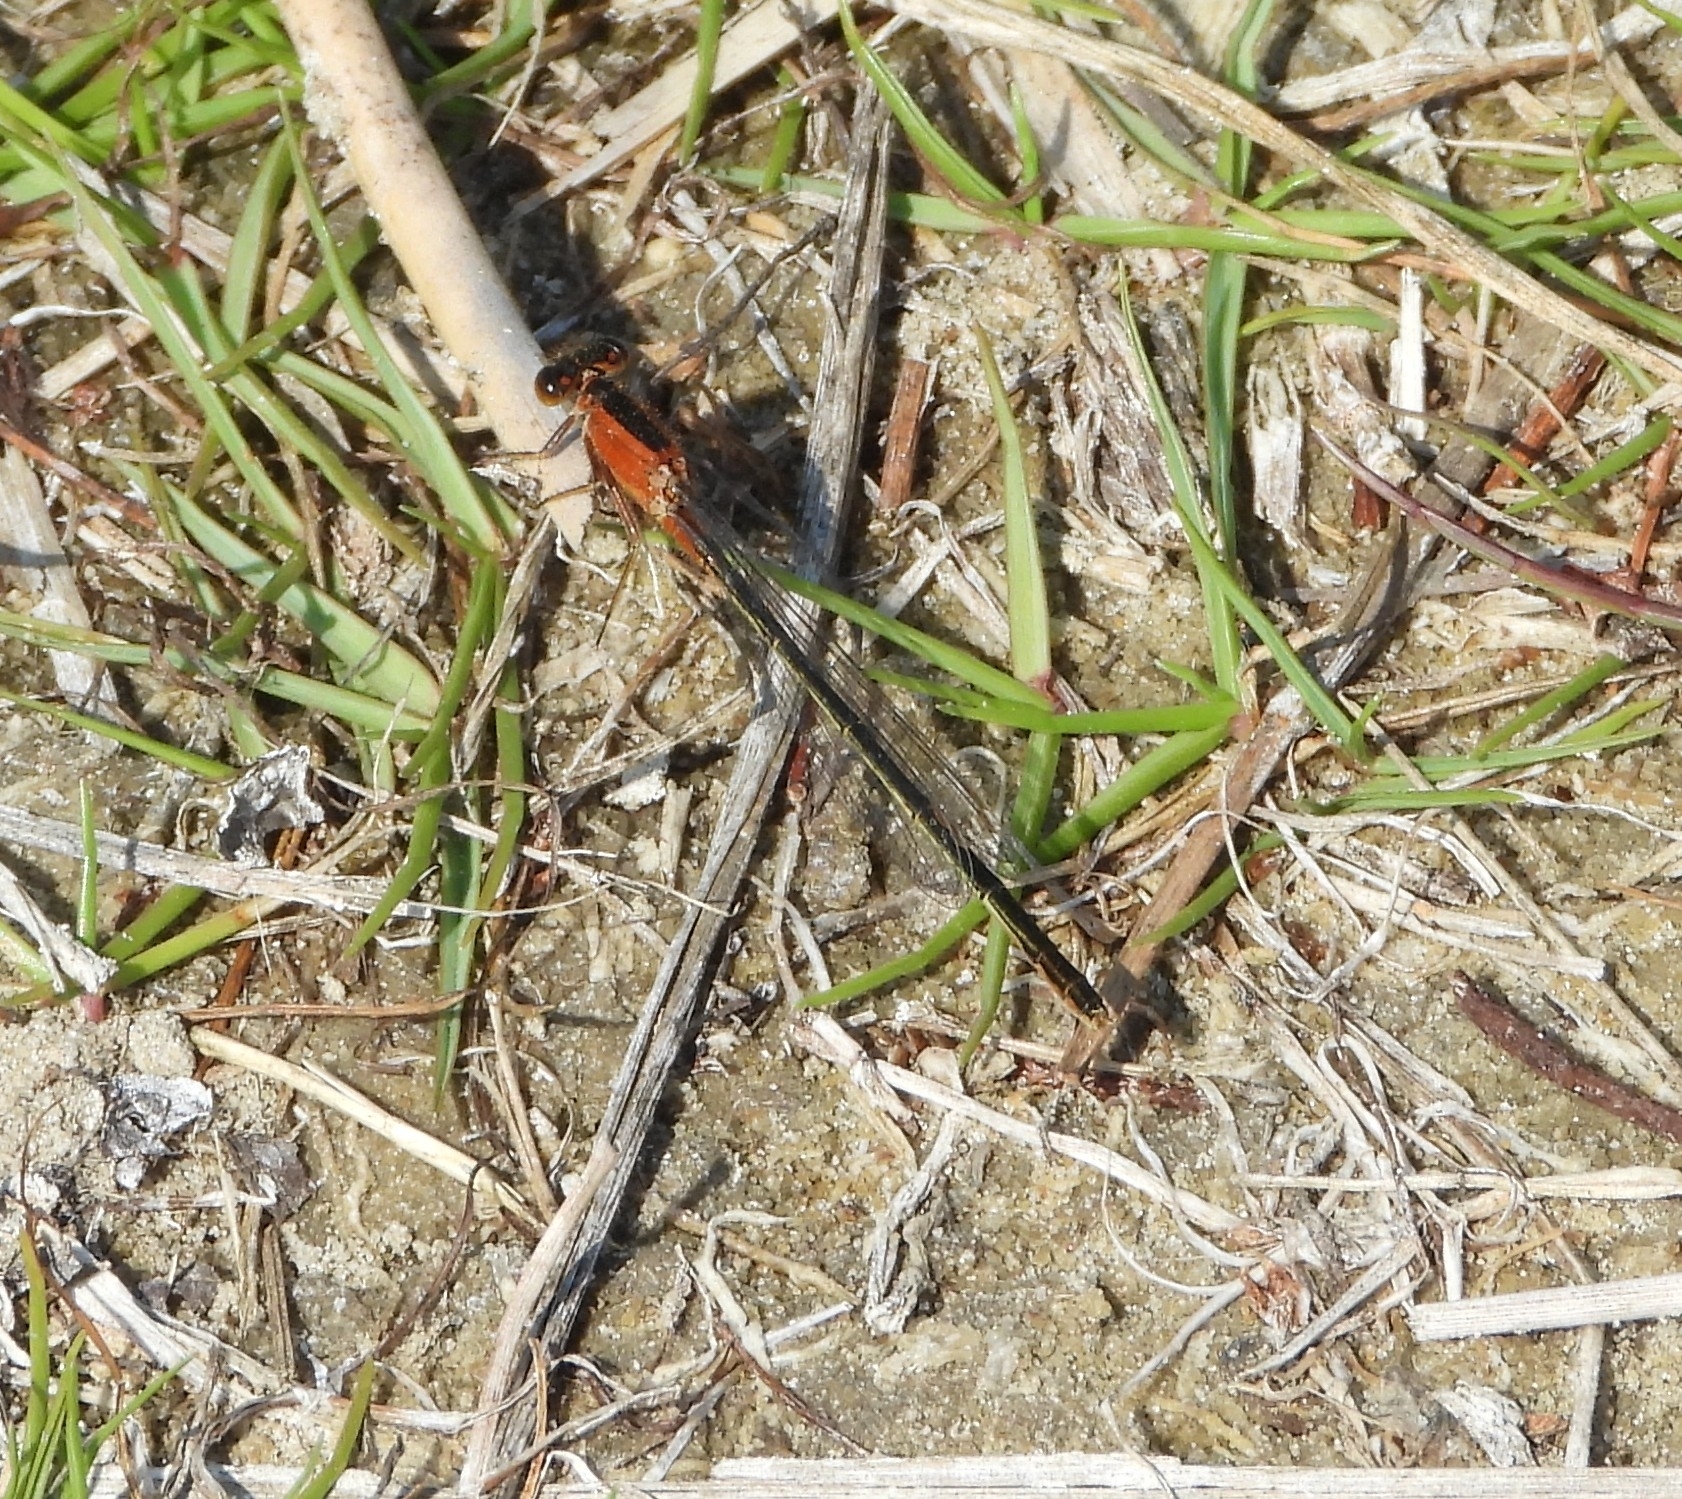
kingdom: Animalia
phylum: Arthropoda
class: Insecta
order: Odonata
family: Coenagrionidae
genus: Ischnura
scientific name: Ischnura ramburii
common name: Rambur's forktail
